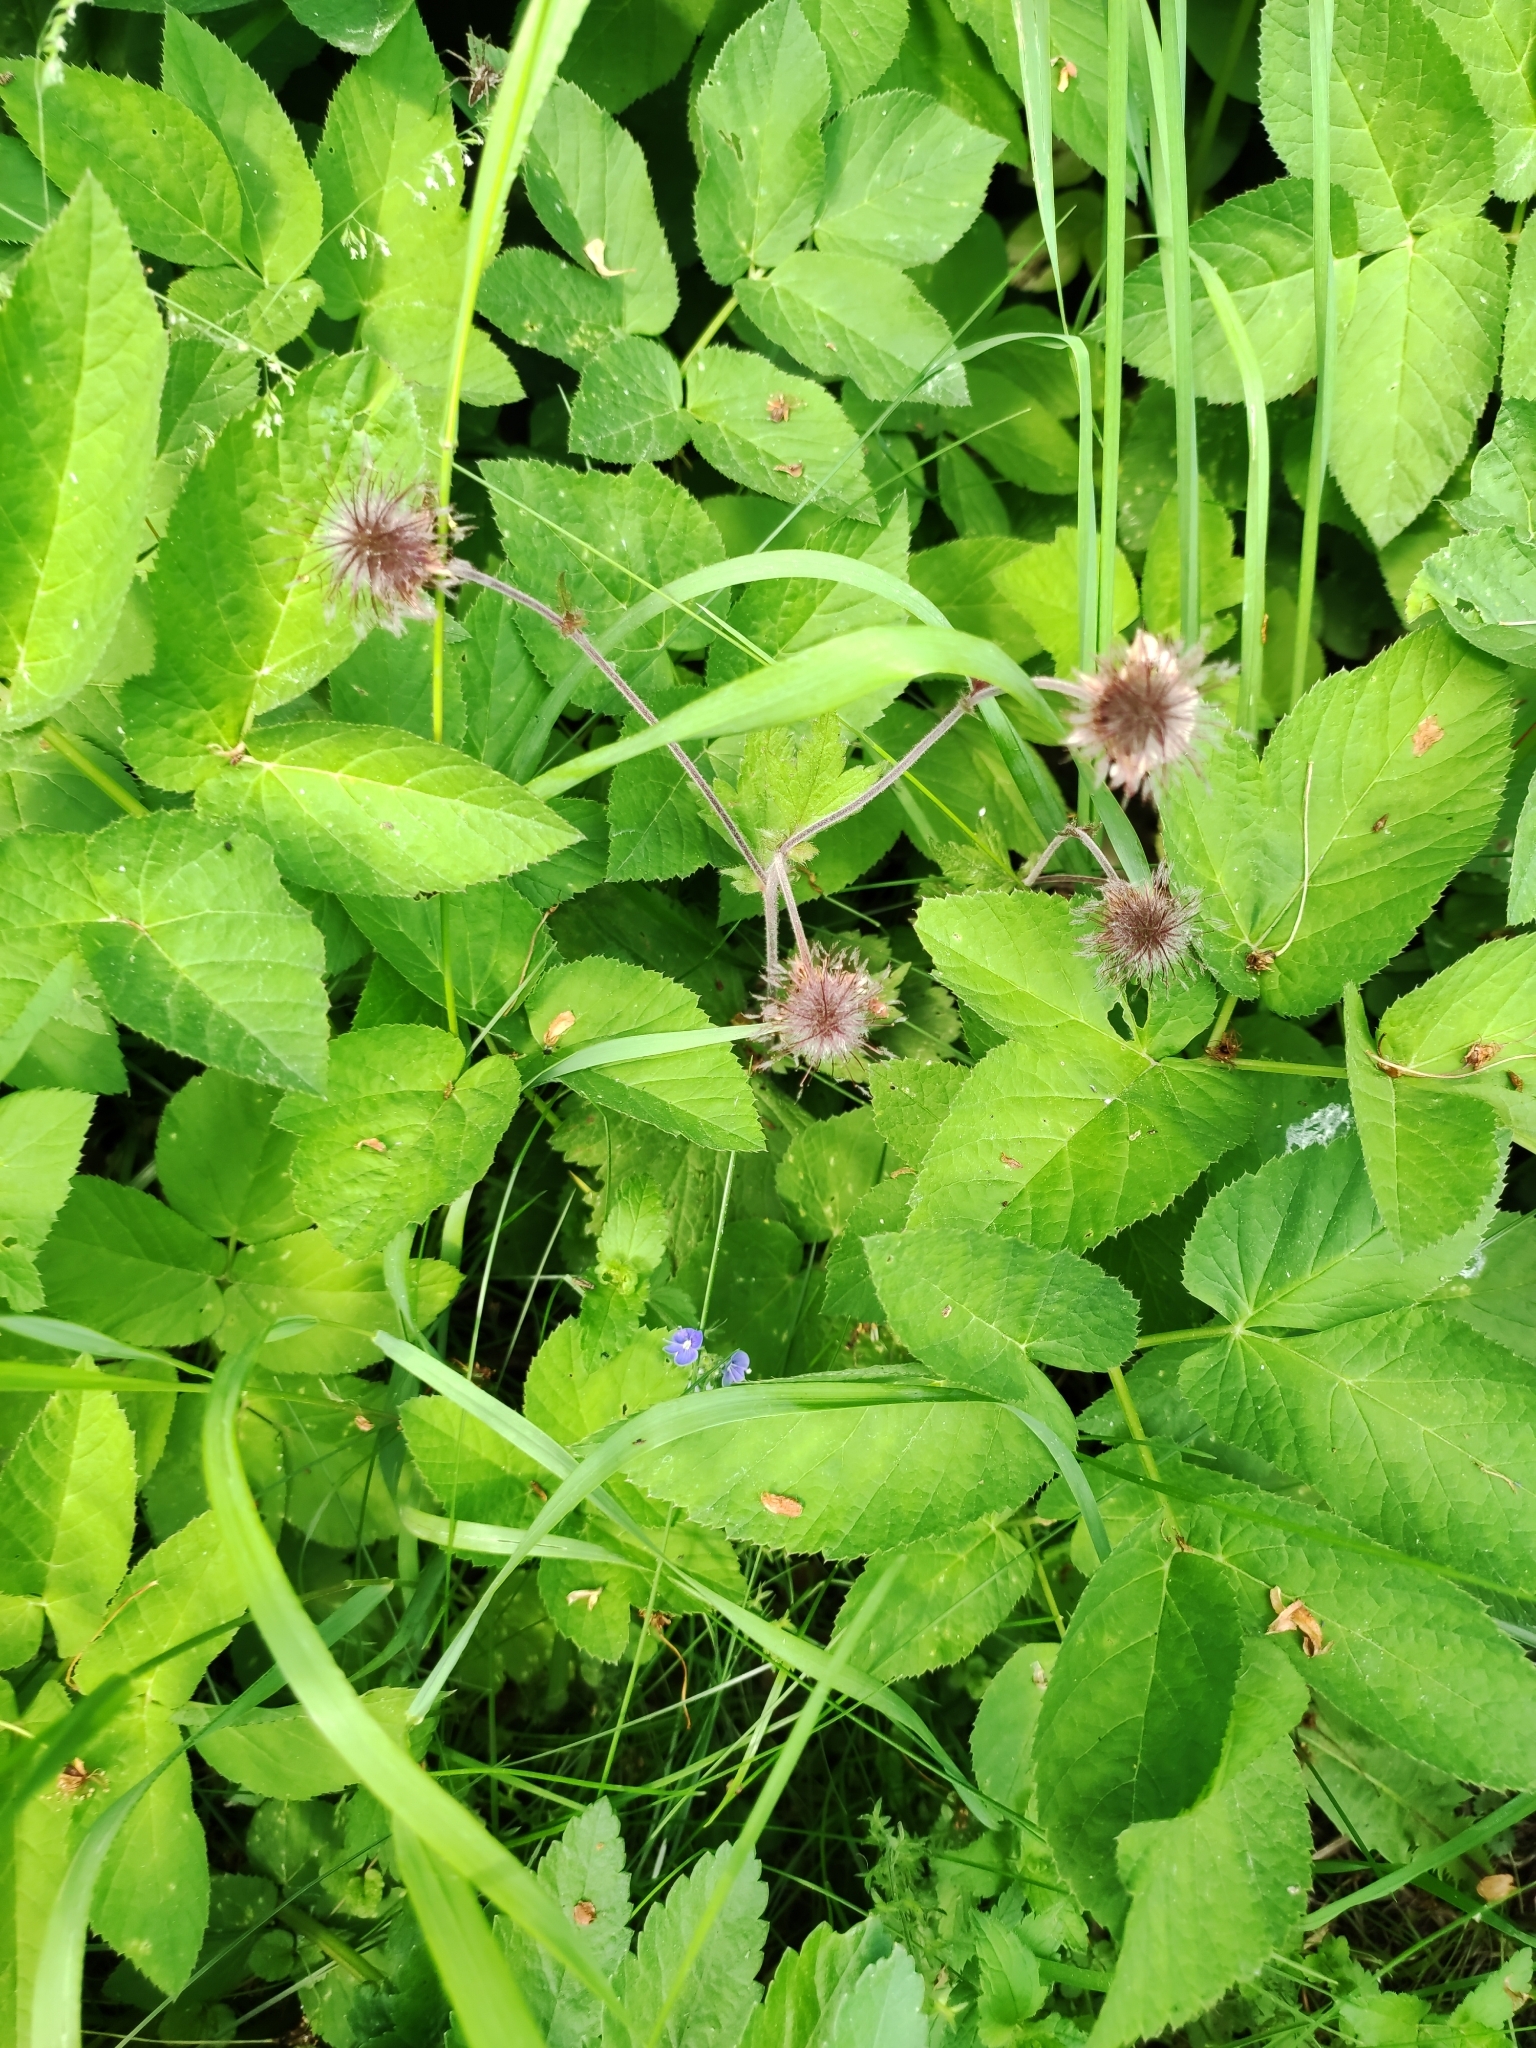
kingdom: Plantae
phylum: Tracheophyta
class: Magnoliopsida
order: Rosales
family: Rosaceae
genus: Geum
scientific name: Geum rivale
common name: Water avens
